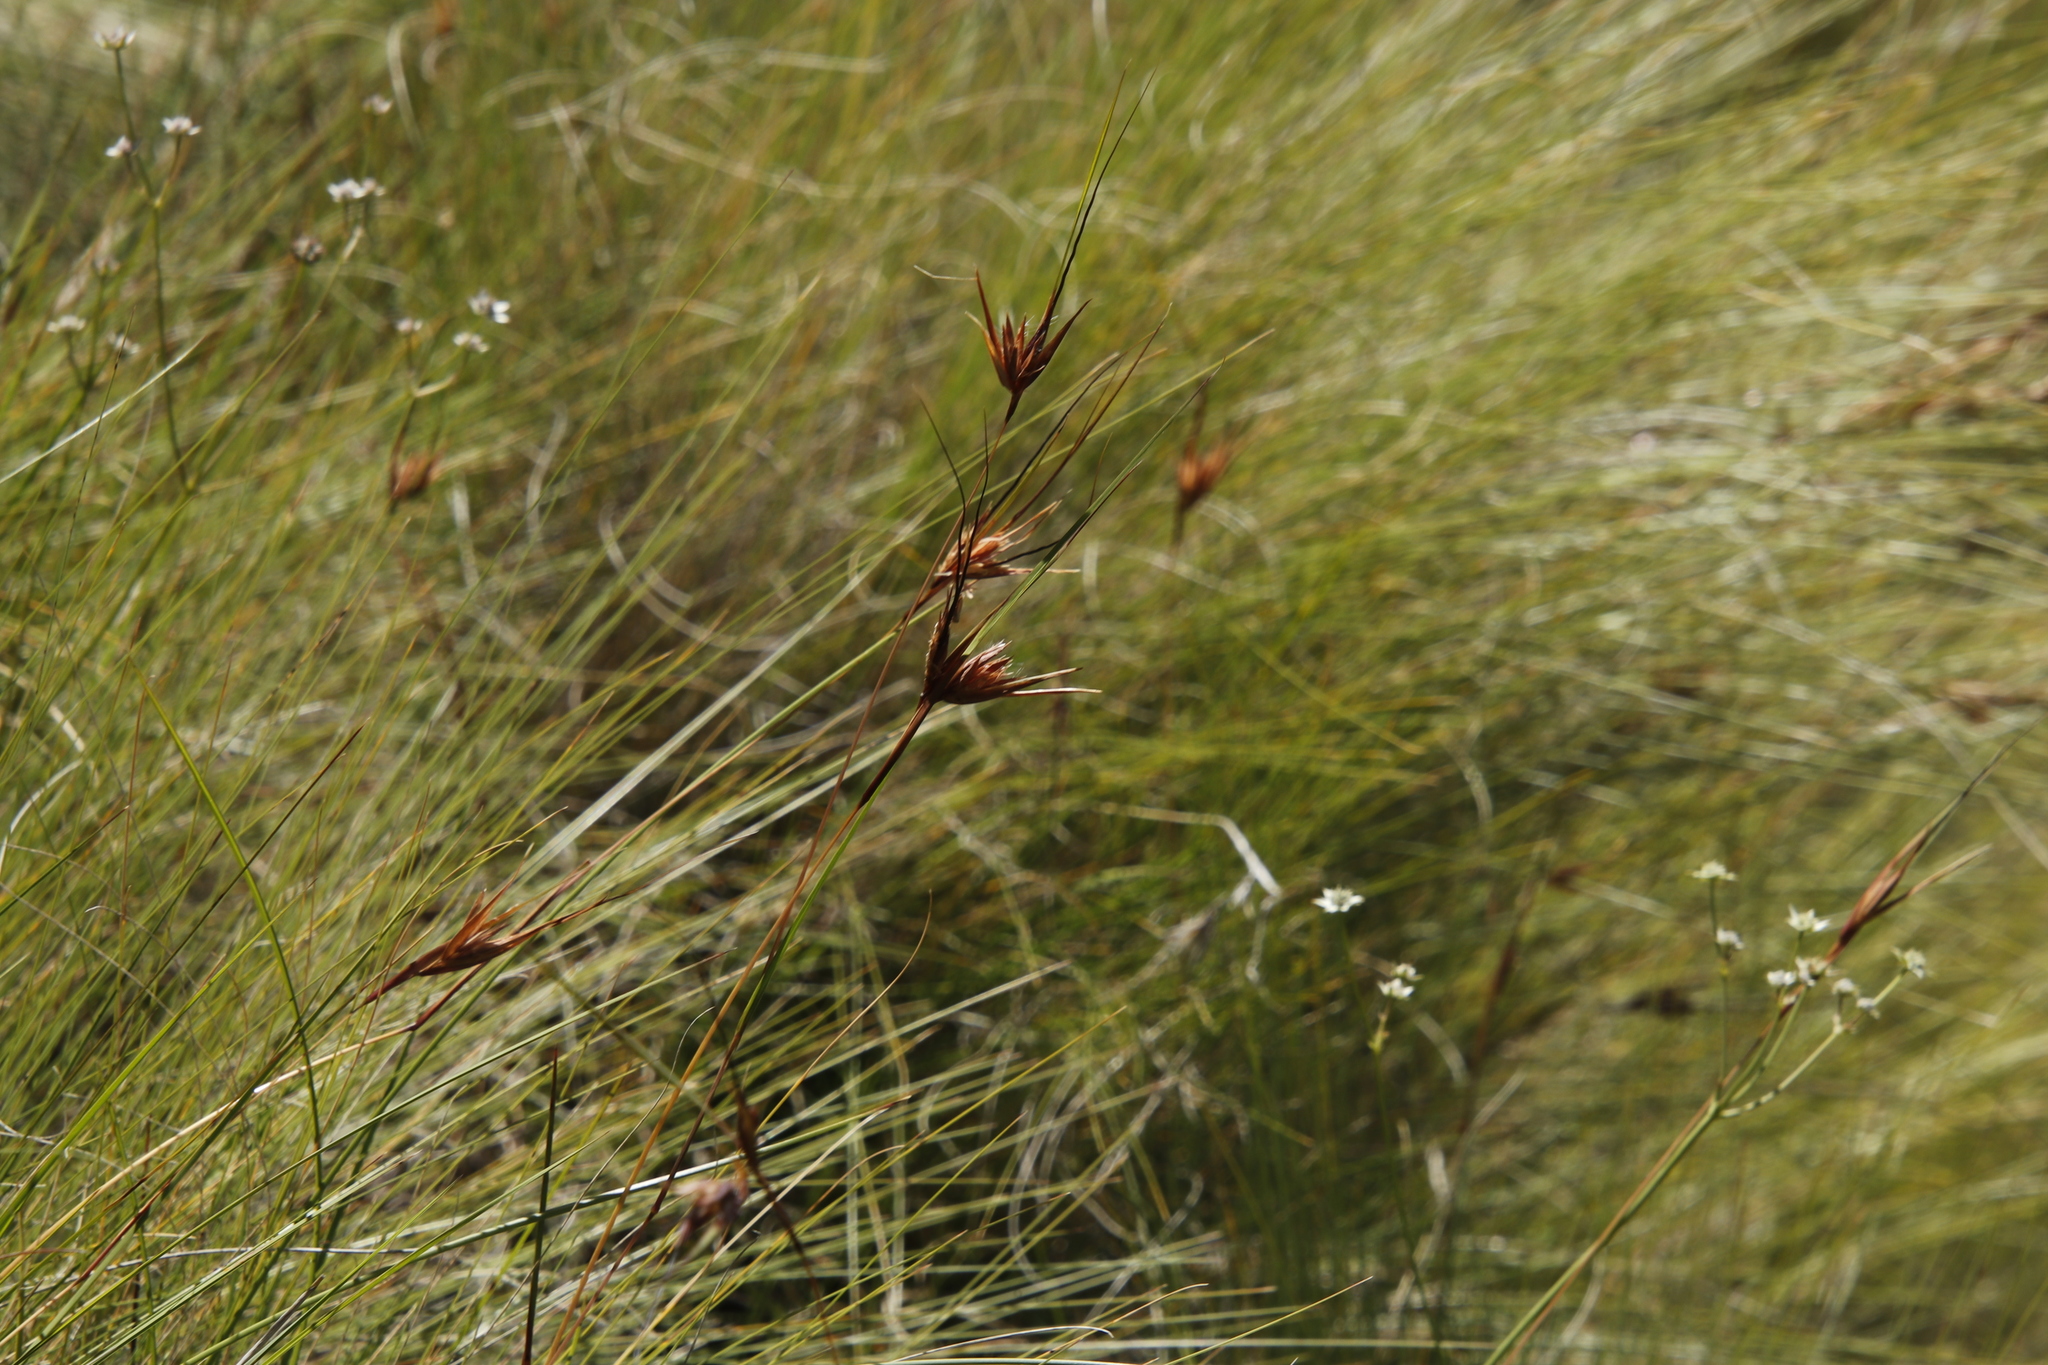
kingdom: Plantae
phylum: Tracheophyta
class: Liliopsida
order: Poales
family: Poaceae
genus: Themeda
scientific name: Themeda triandra
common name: Kangaroo grass
